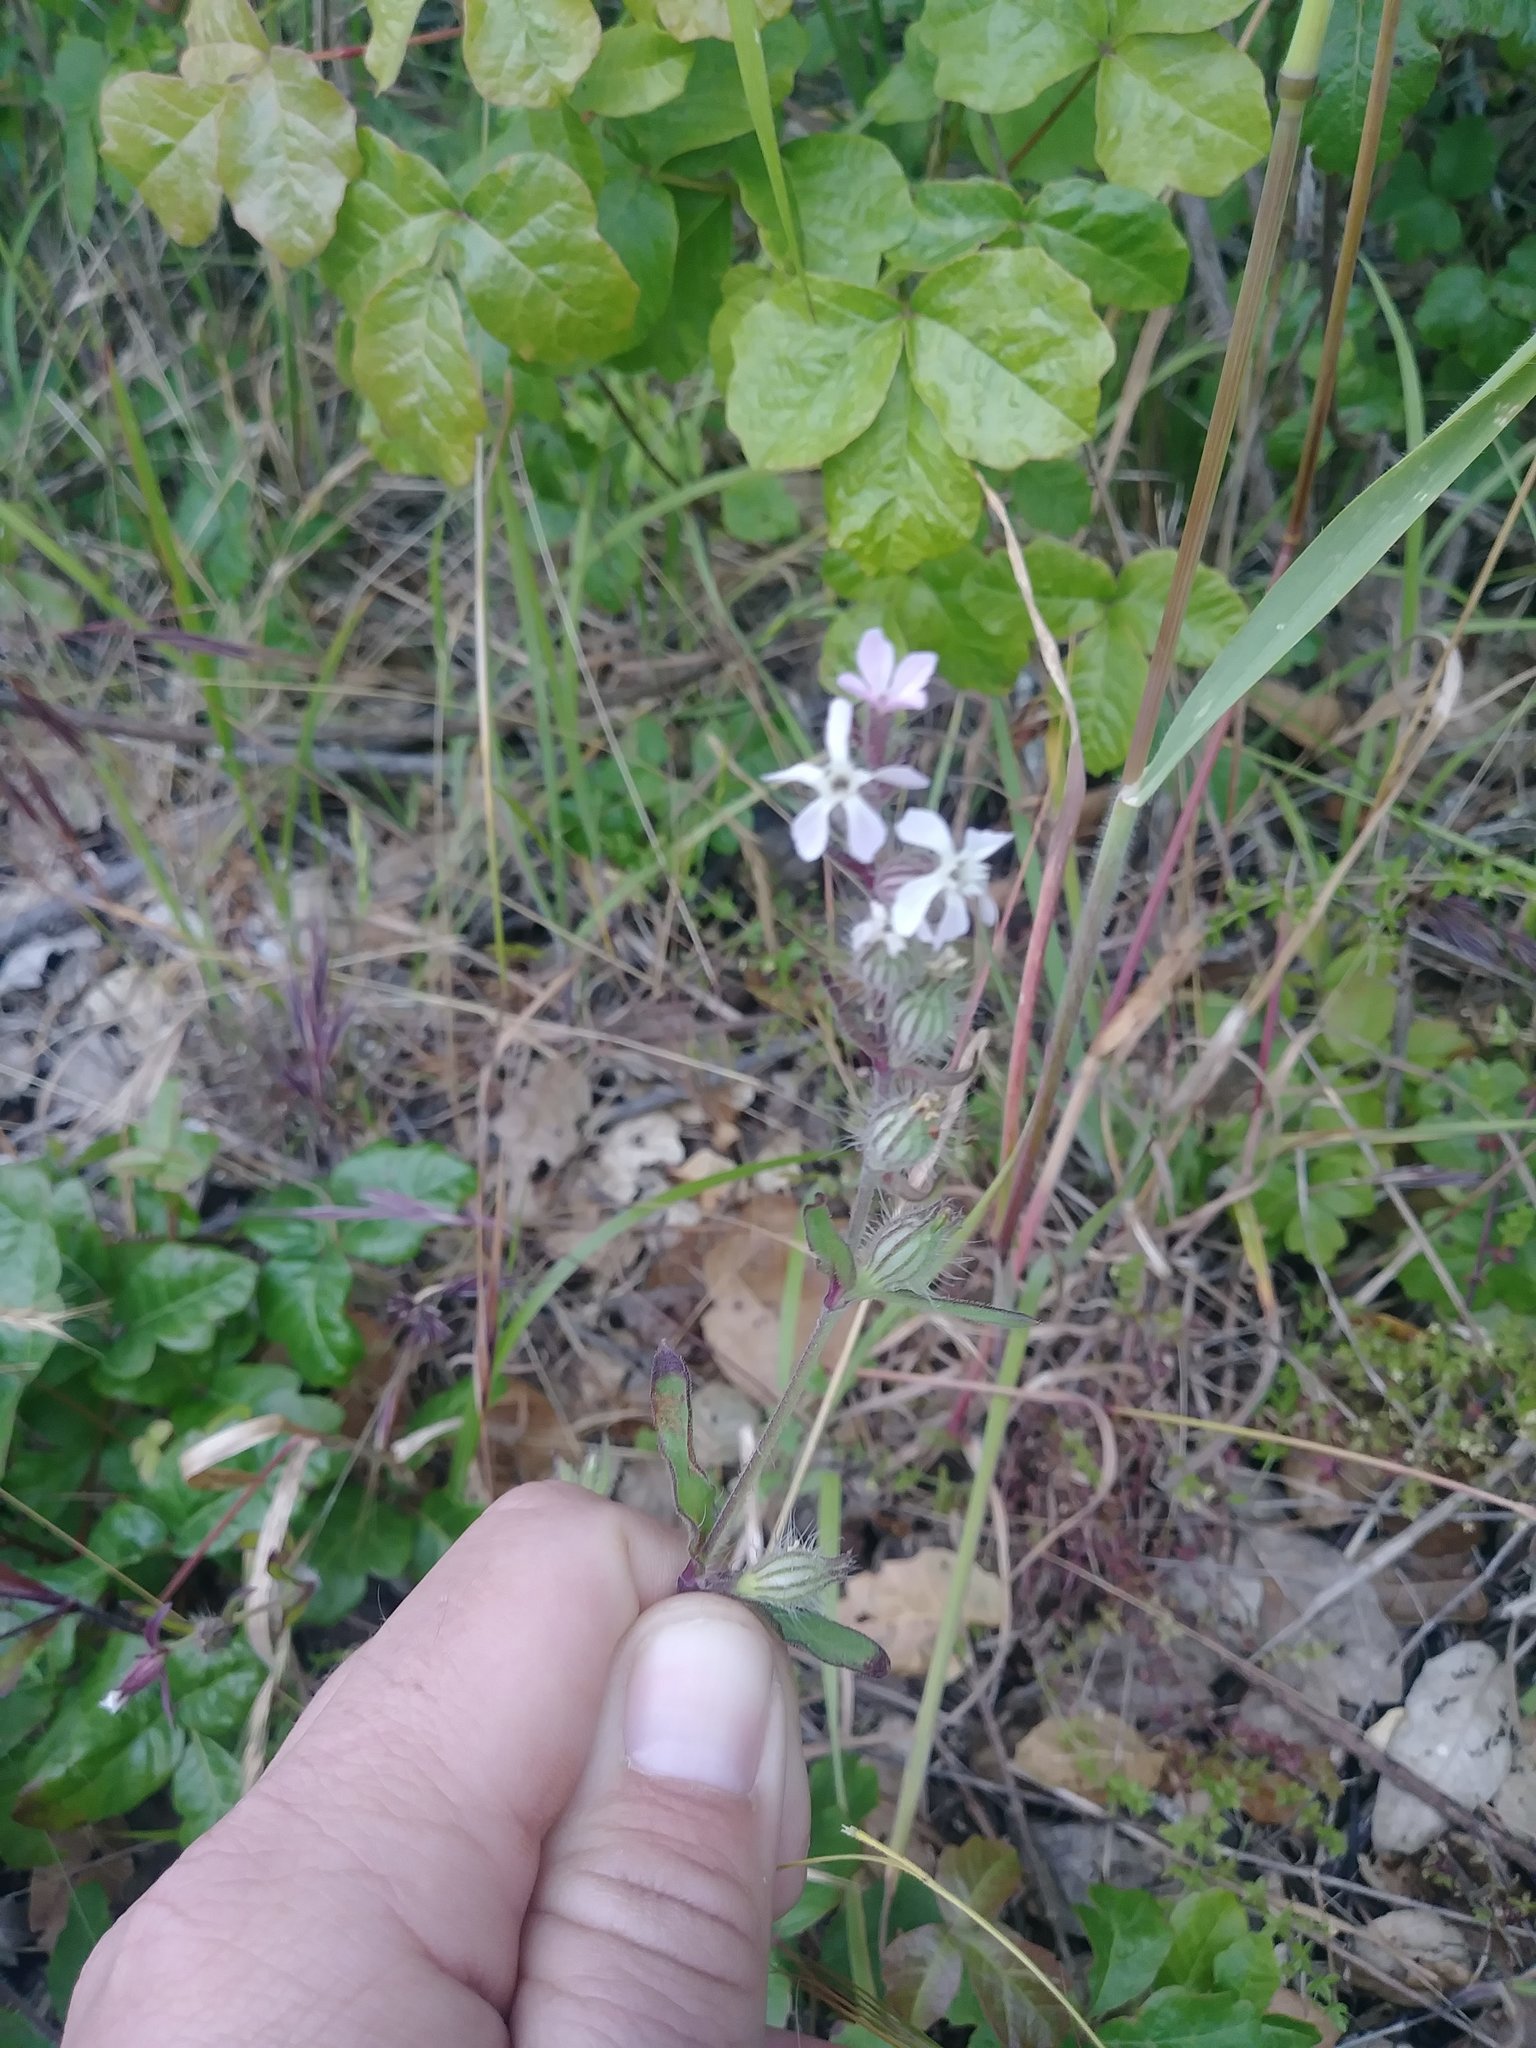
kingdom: Plantae
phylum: Tracheophyta
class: Magnoliopsida
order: Caryophyllales
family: Caryophyllaceae
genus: Silene
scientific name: Silene gallica
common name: Small-flowered catchfly
